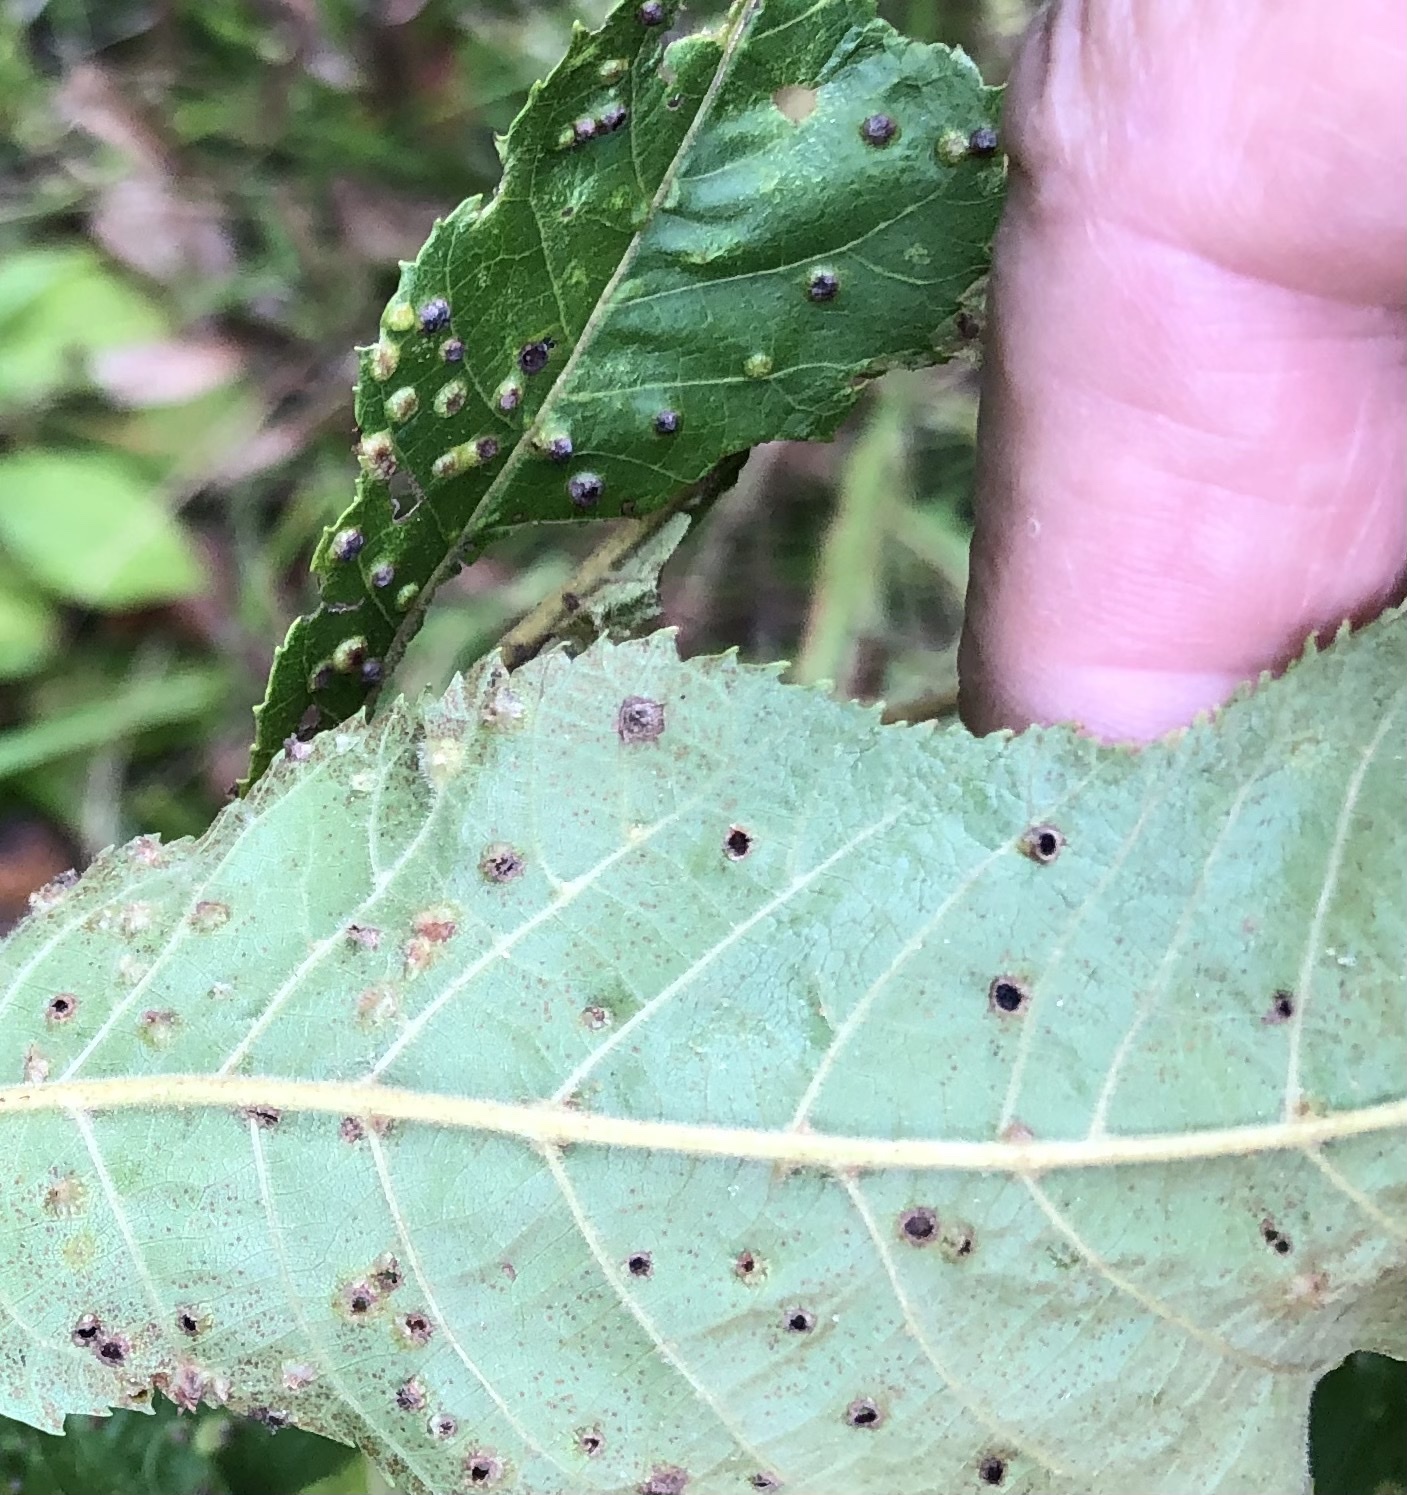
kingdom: Animalia
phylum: Arthropoda
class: Insecta
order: Hemiptera
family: Phylloxeridae
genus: Phylloxera
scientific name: Phylloxera caryae-semen
